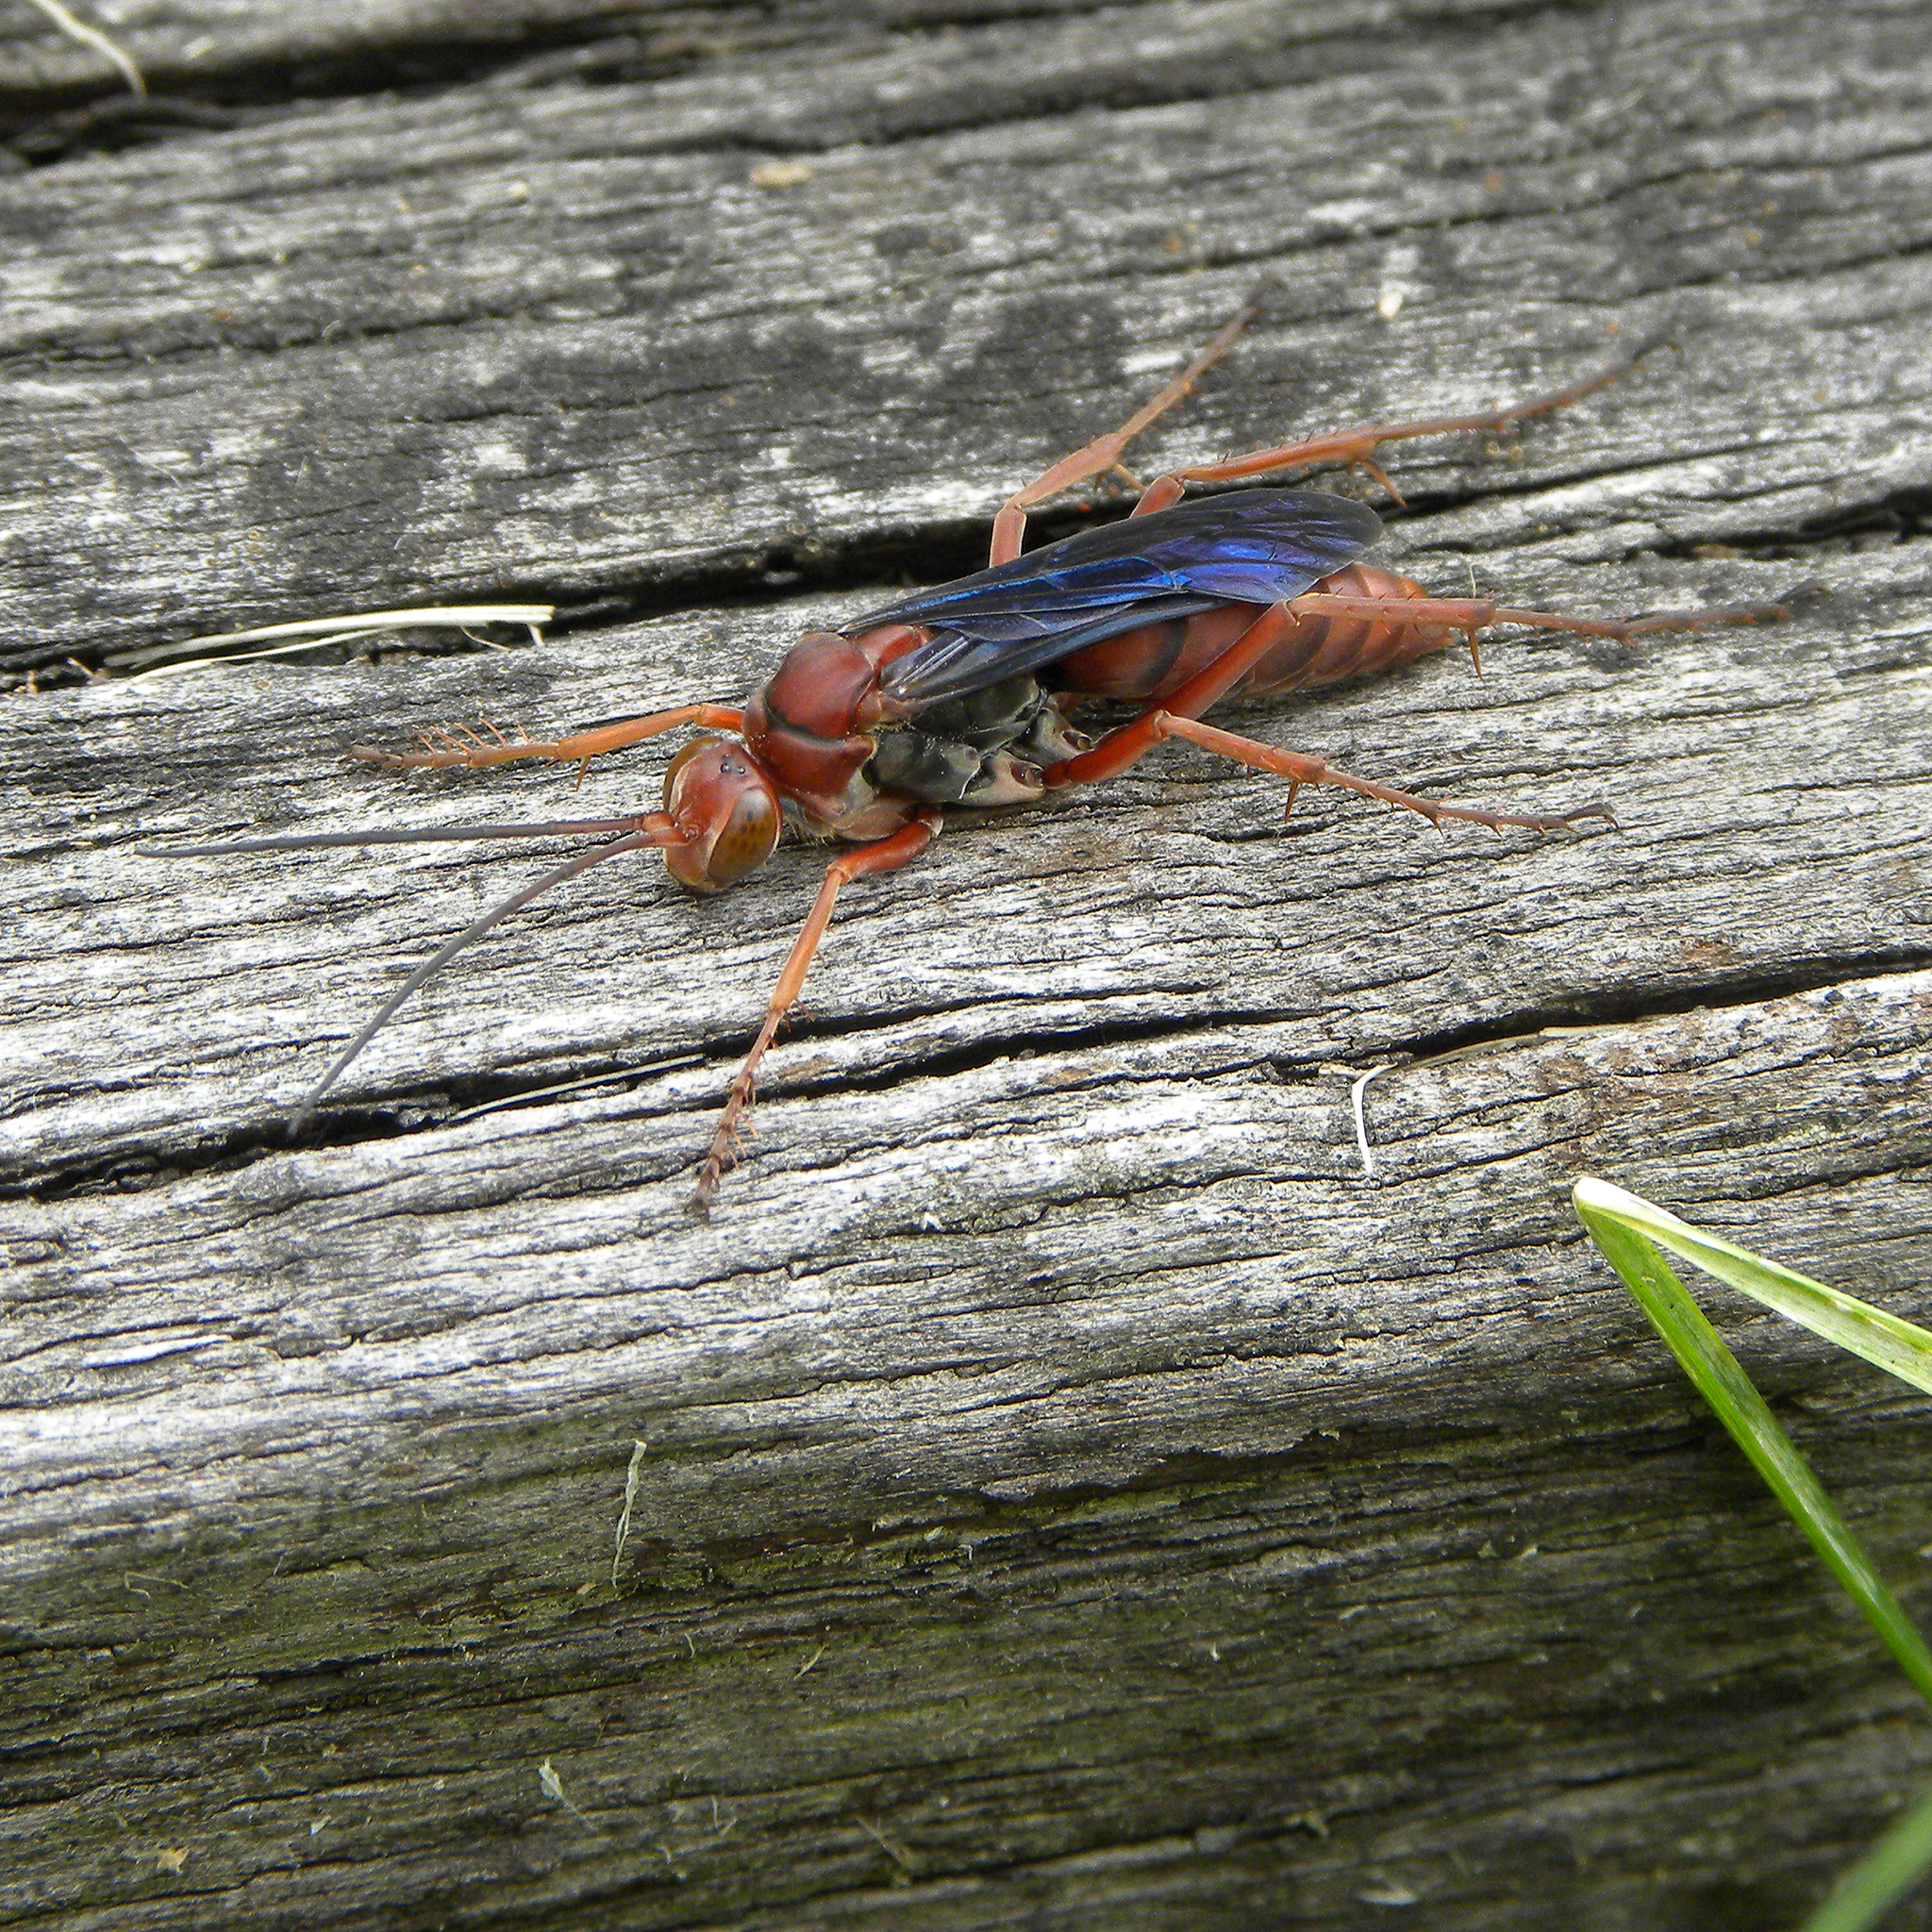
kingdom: Animalia
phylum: Arthropoda
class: Insecta
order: Hymenoptera
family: Pompilidae
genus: Tachypompilus
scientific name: Tachypompilus ferrugineus
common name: Rusty spider wasp
